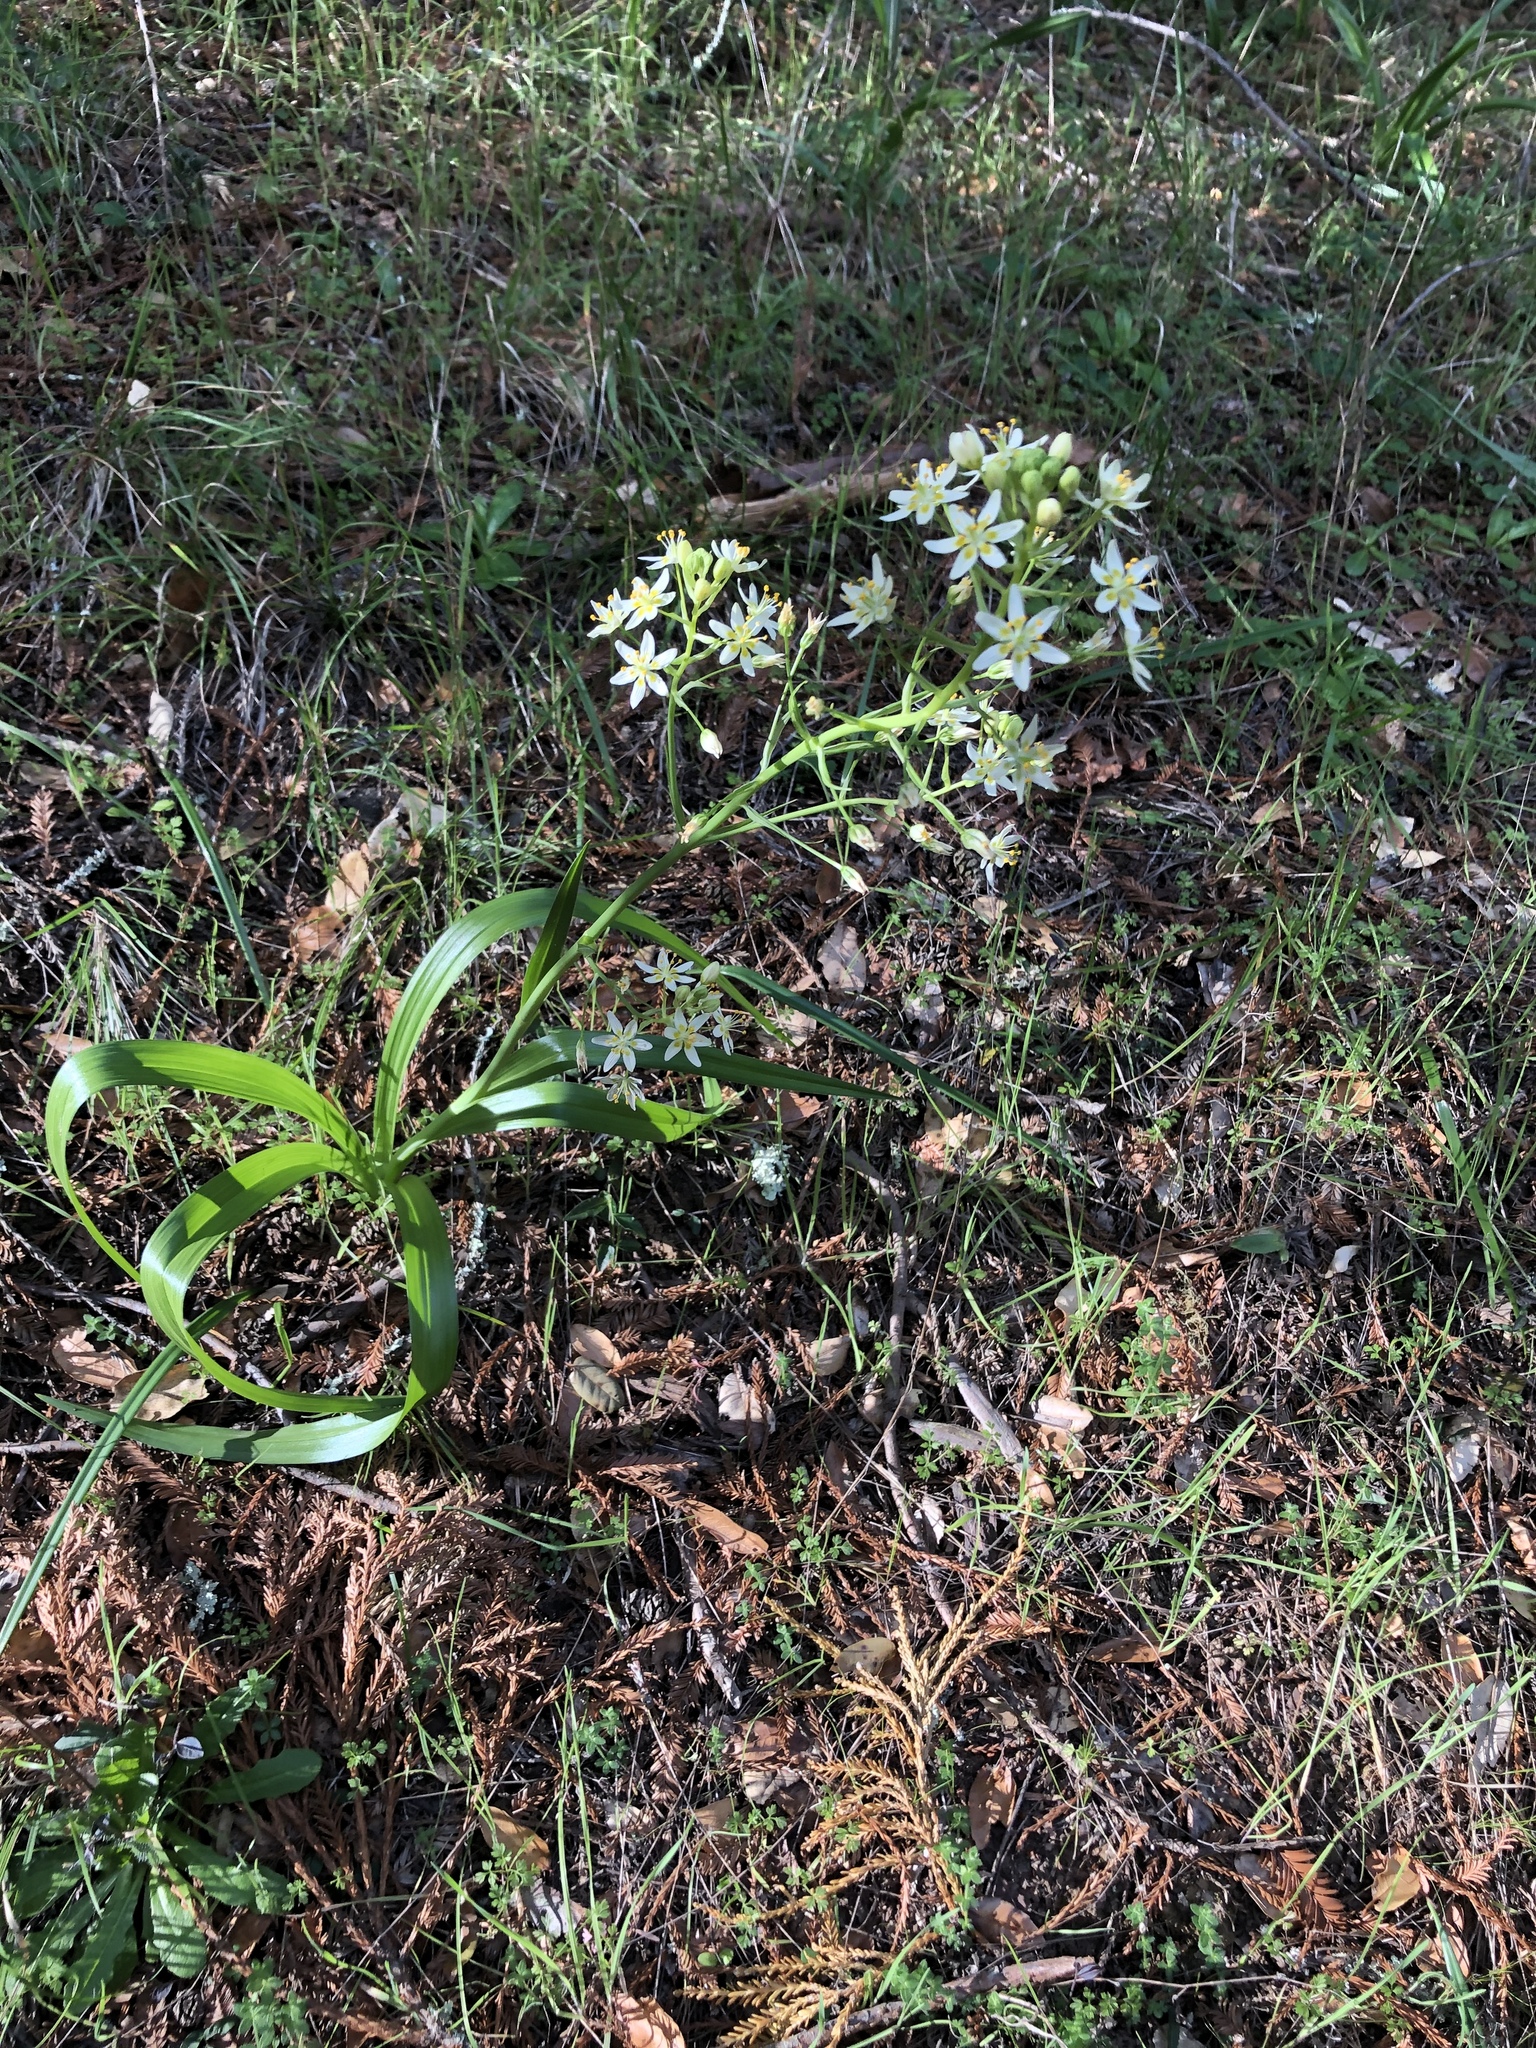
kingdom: Plantae
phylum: Tracheophyta
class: Liliopsida
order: Liliales
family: Melanthiaceae
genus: Toxicoscordion
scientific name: Toxicoscordion fremontii
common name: Fremont's death camas
